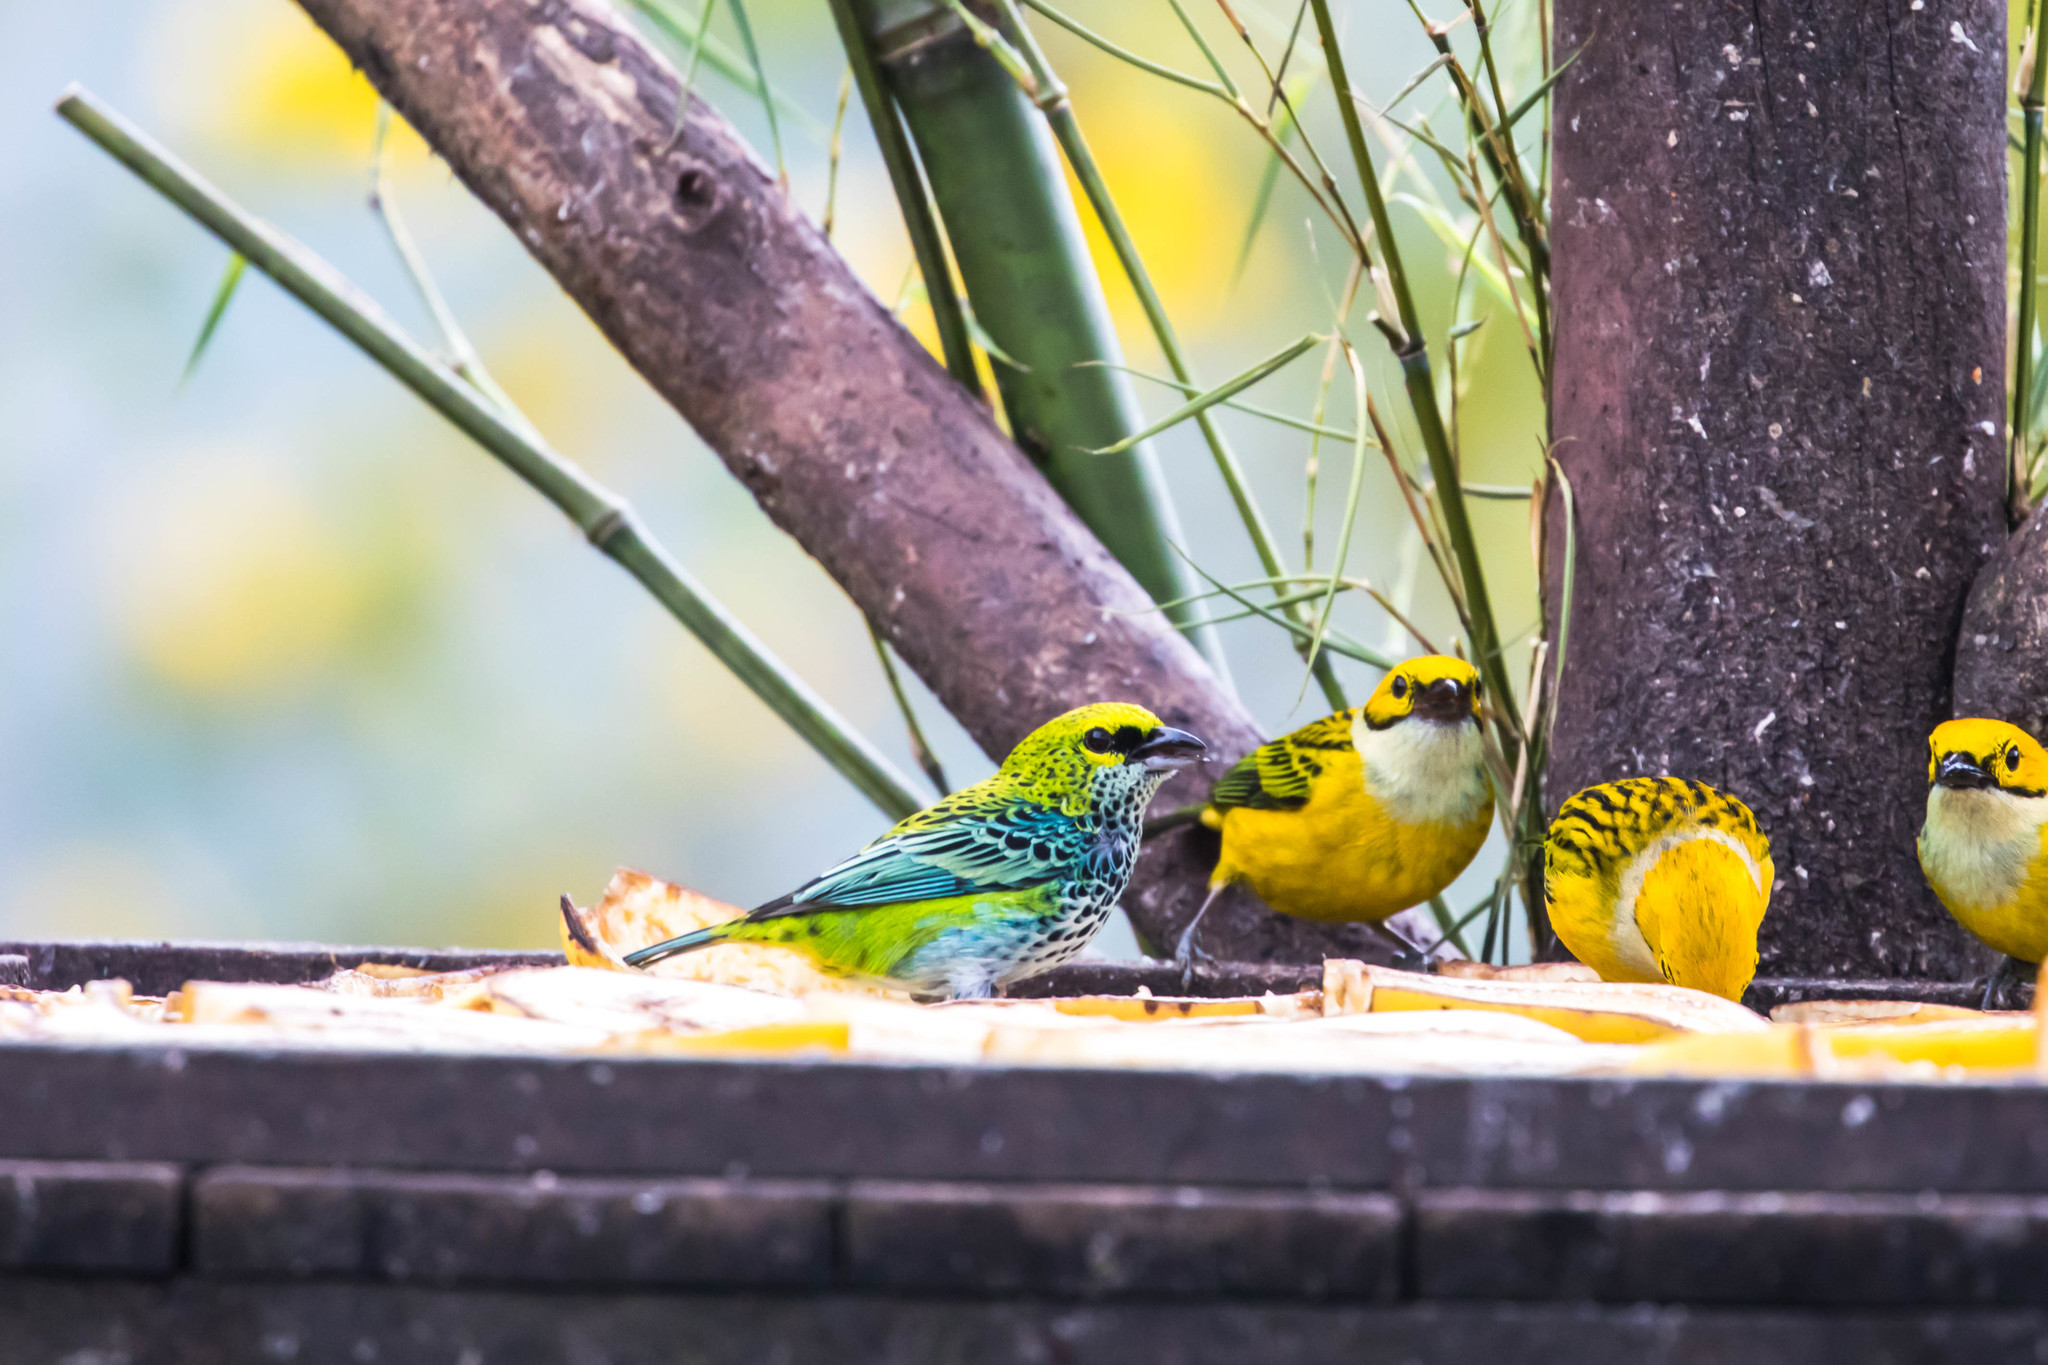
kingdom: Animalia
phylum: Chordata
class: Aves
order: Passeriformes
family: Thraupidae
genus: Ixothraupis
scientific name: Ixothraupis guttata
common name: Speckled tanager
